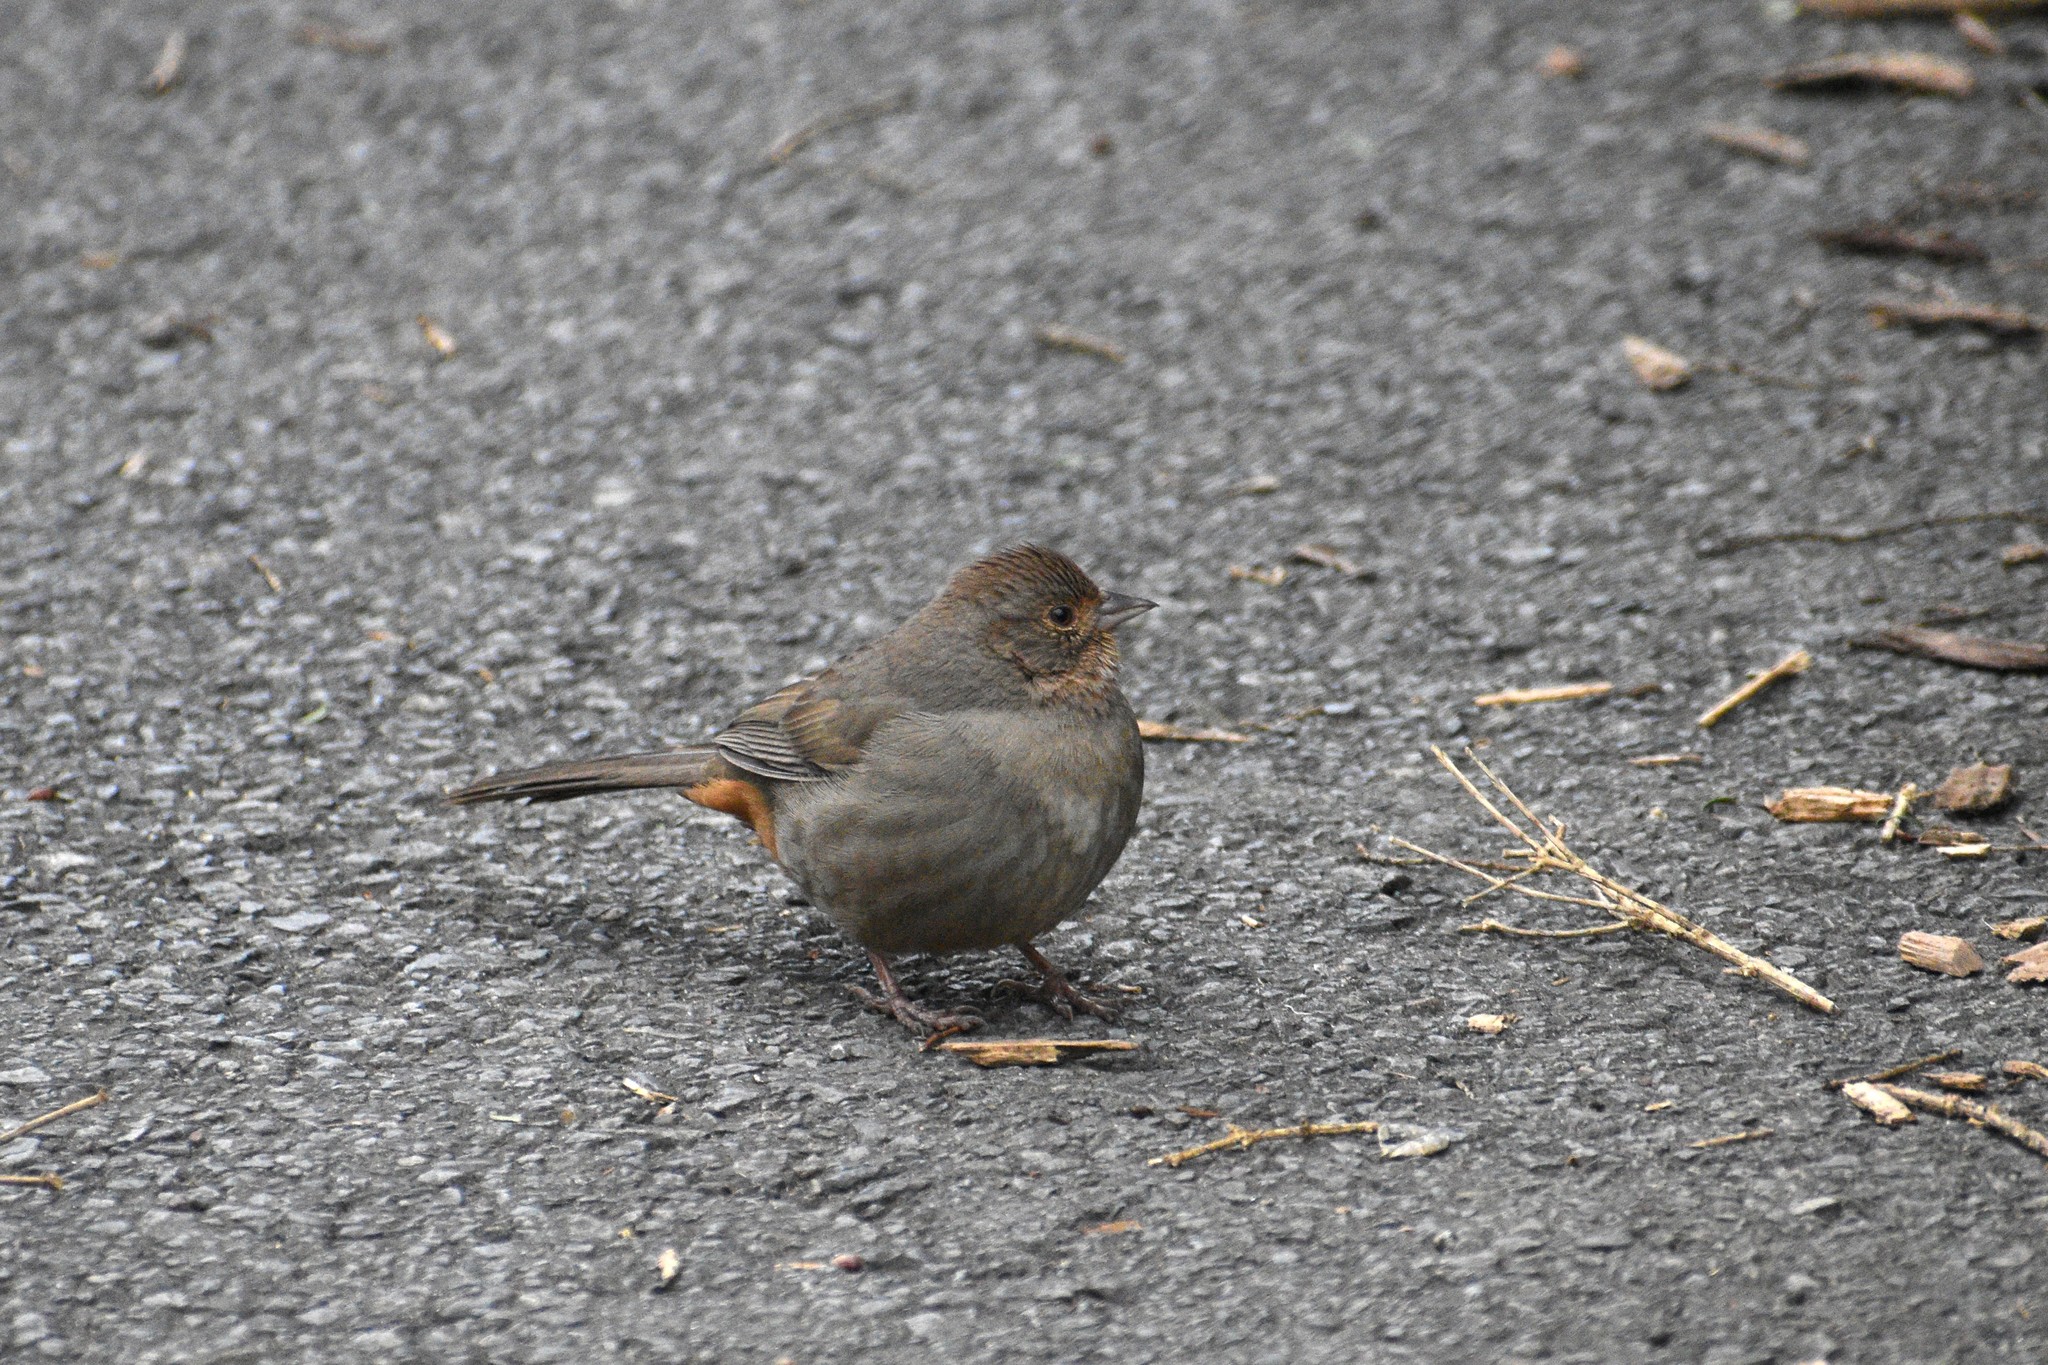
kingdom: Animalia
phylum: Chordata
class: Aves
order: Passeriformes
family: Passerellidae
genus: Melozone
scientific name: Melozone crissalis
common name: California towhee
